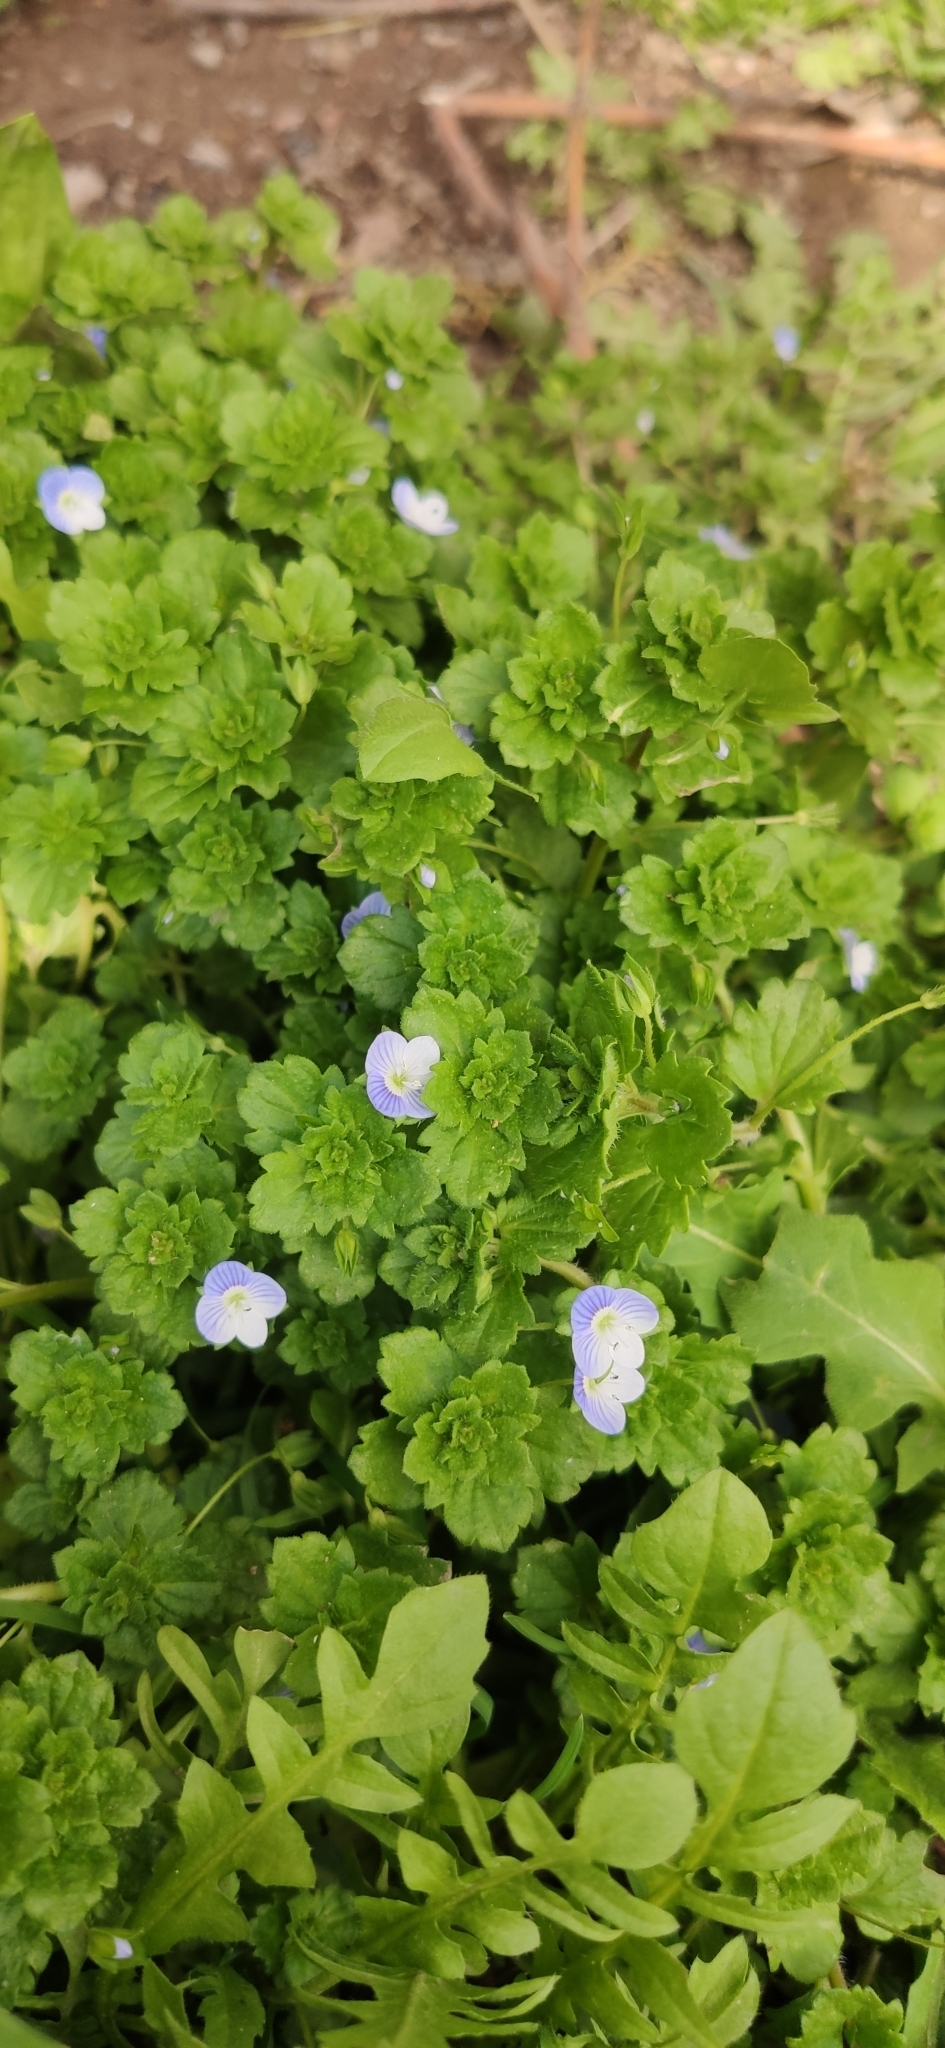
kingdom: Plantae
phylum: Tracheophyta
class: Magnoliopsida
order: Lamiales
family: Plantaginaceae
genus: Veronica
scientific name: Veronica persica
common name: Common field-speedwell
